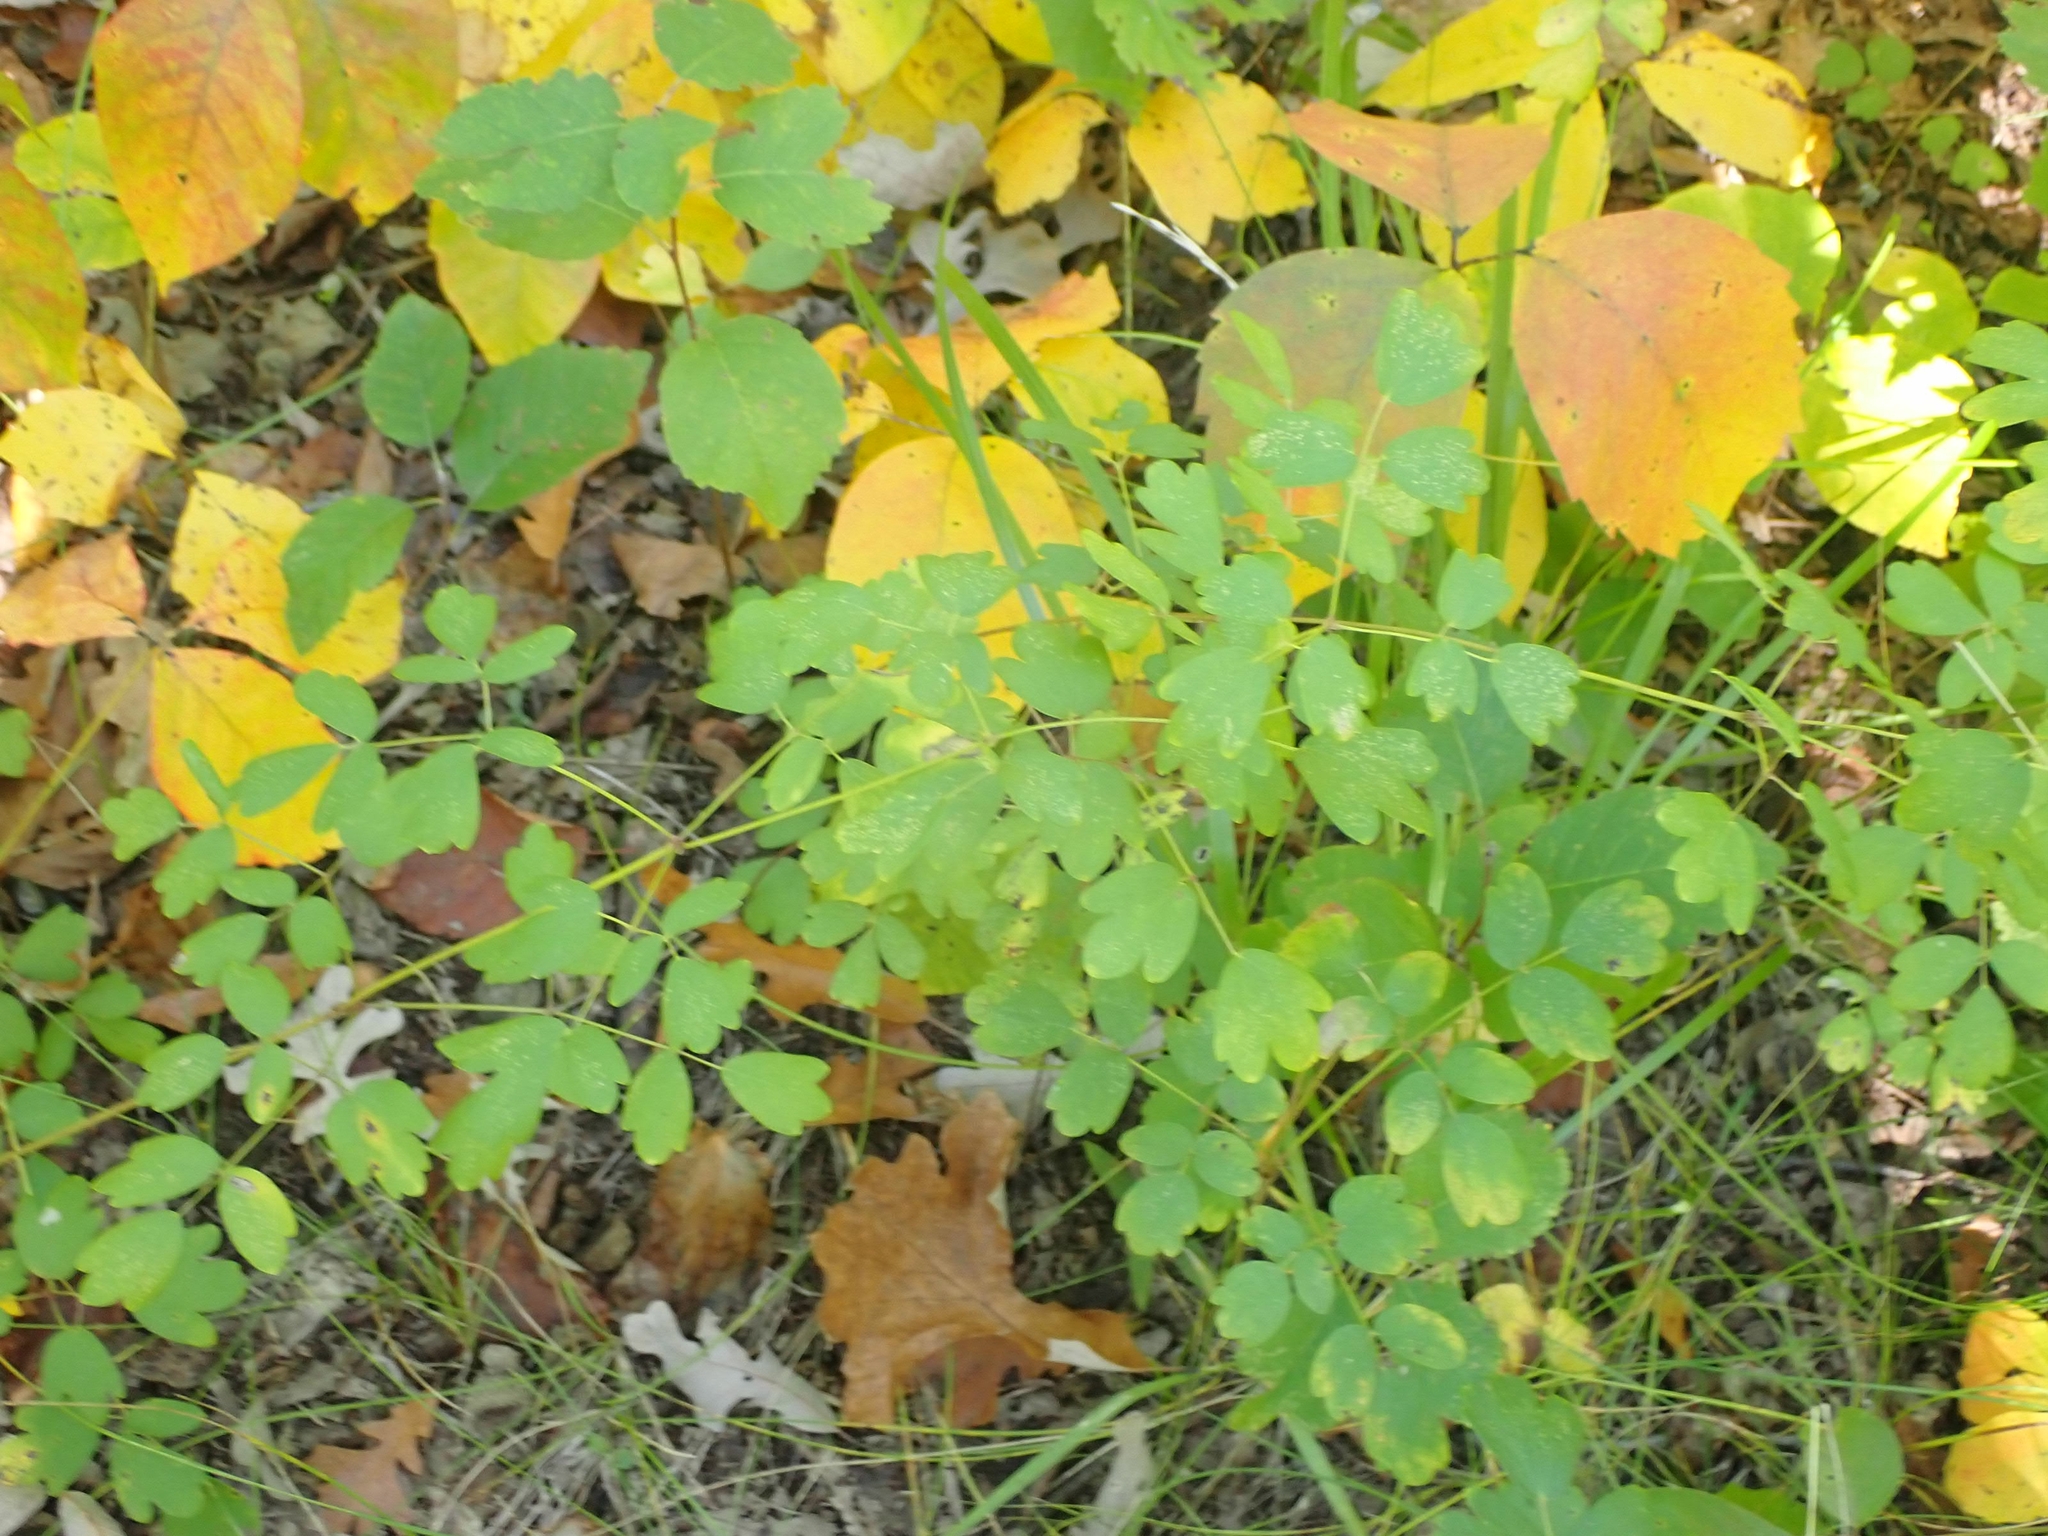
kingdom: Plantae
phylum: Tracheophyta
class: Magnoliopsida
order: Ranunculales
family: Ranunculaceae
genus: Thalictrum
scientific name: Thalictrum dasycarpum
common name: Purple meadow-rue
